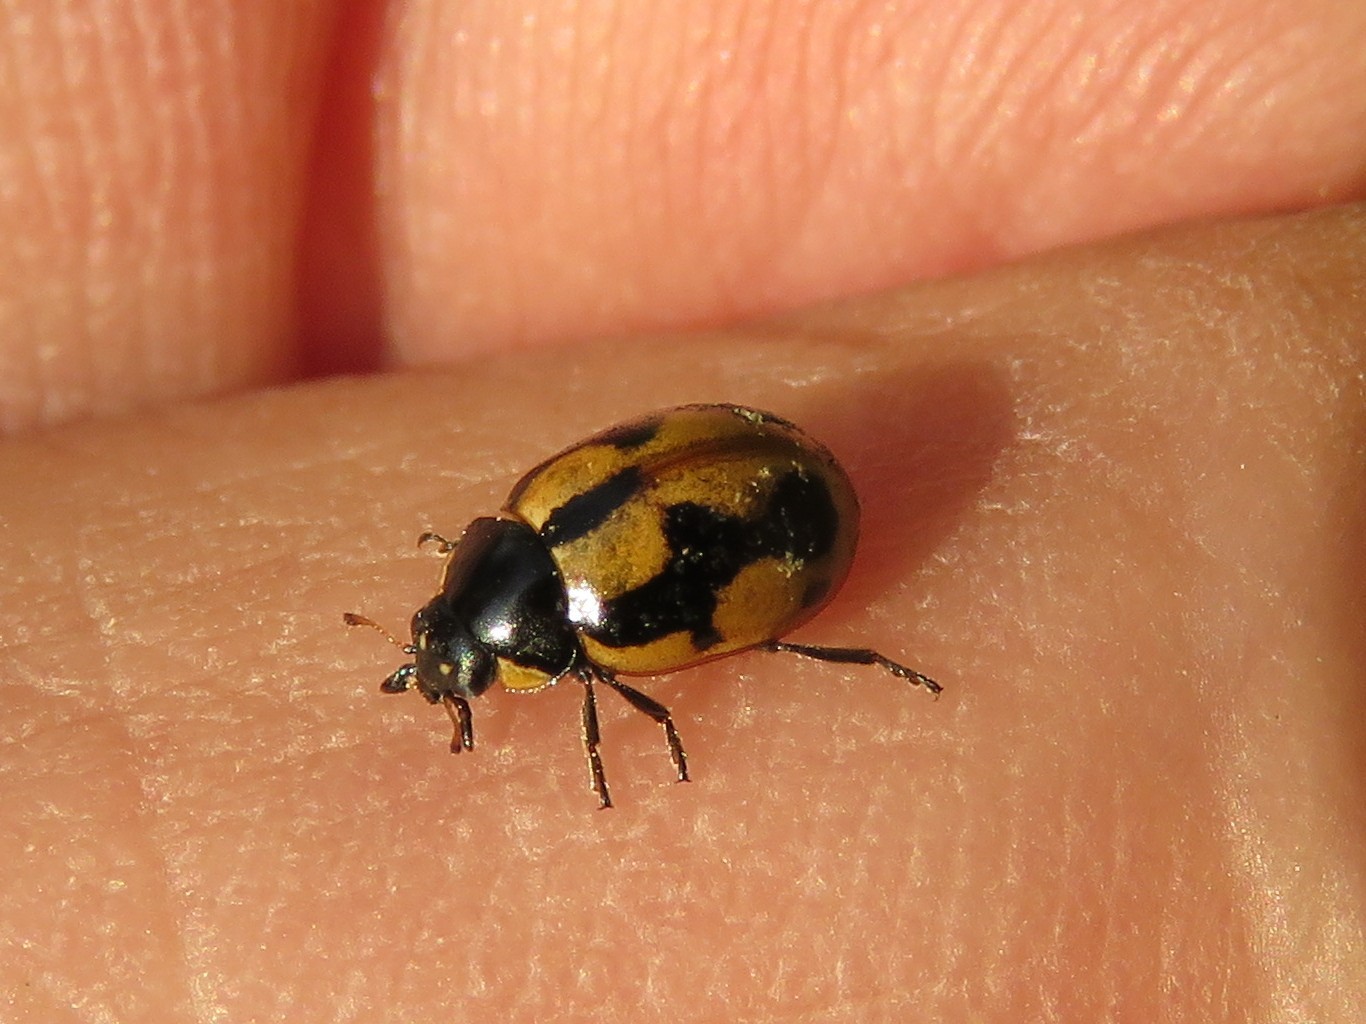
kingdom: Animalia
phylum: Arthropoda
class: Insecta
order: Coleoptera
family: Coccinellidae
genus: Coccinella
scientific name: Coccinella hieroglyphica
